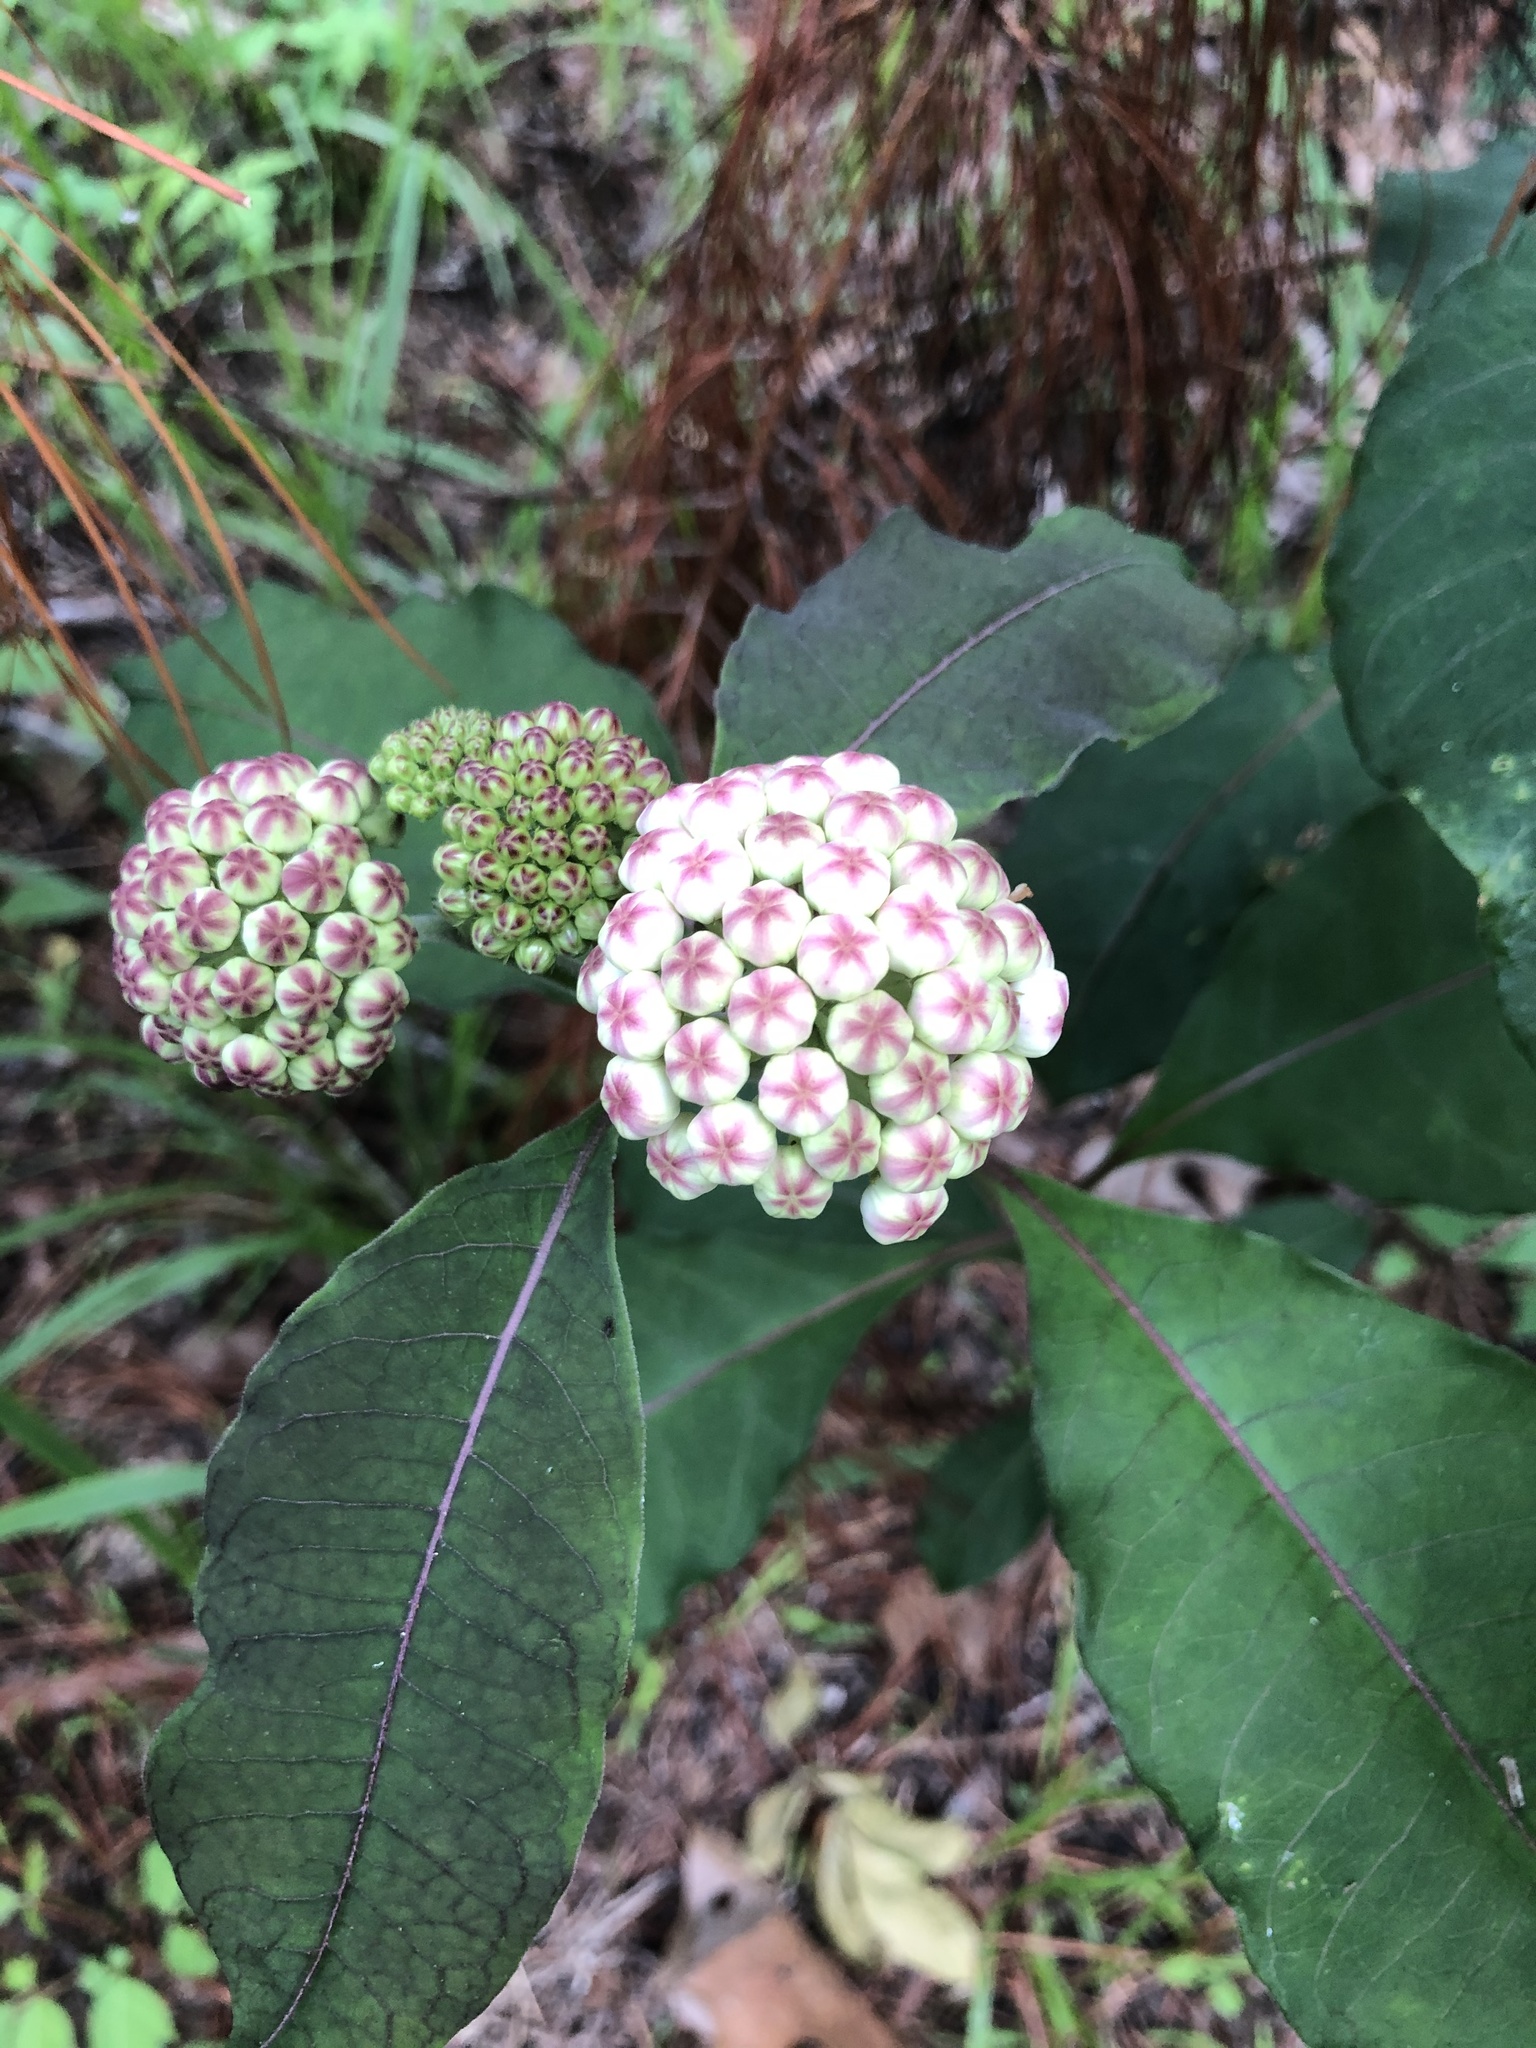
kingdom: Plantae
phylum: Tracheophyta
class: Magnoliopsida
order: Gentianales
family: Apocynaceae
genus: Asclepias
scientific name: Asclepias variegata
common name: Variegated milkweed
